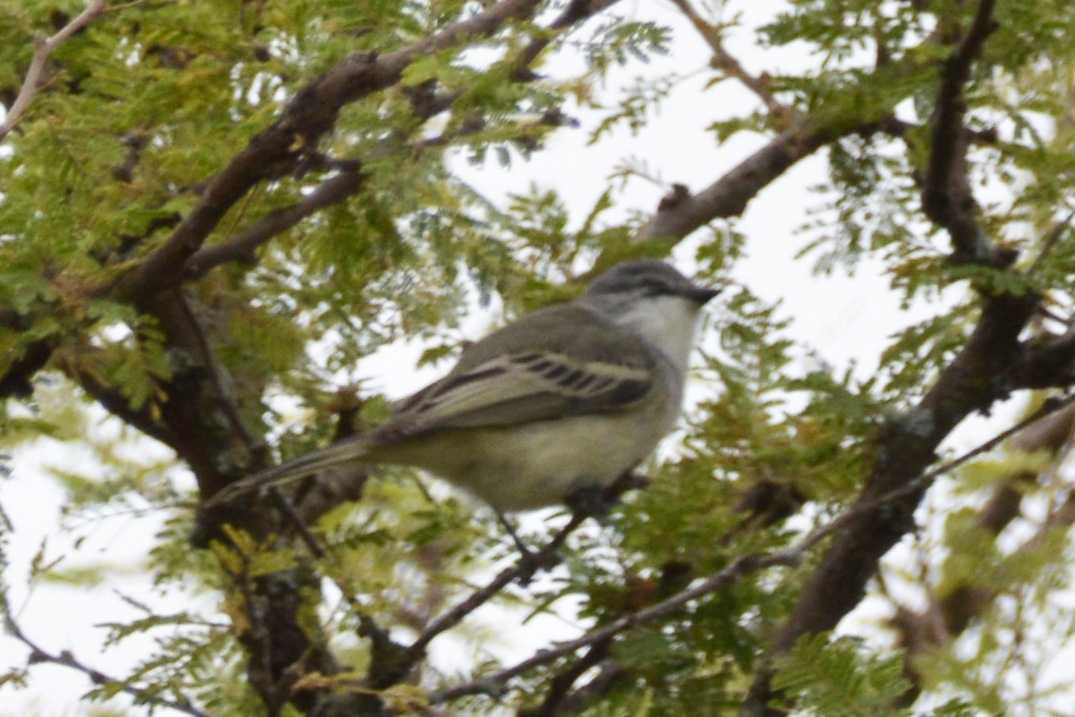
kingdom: Animalia
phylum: Chordata
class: Aves
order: Passeriformes
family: Tyrannidae
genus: Suiriri
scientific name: Suiriri suiriri
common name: Suiriri flycatcher
